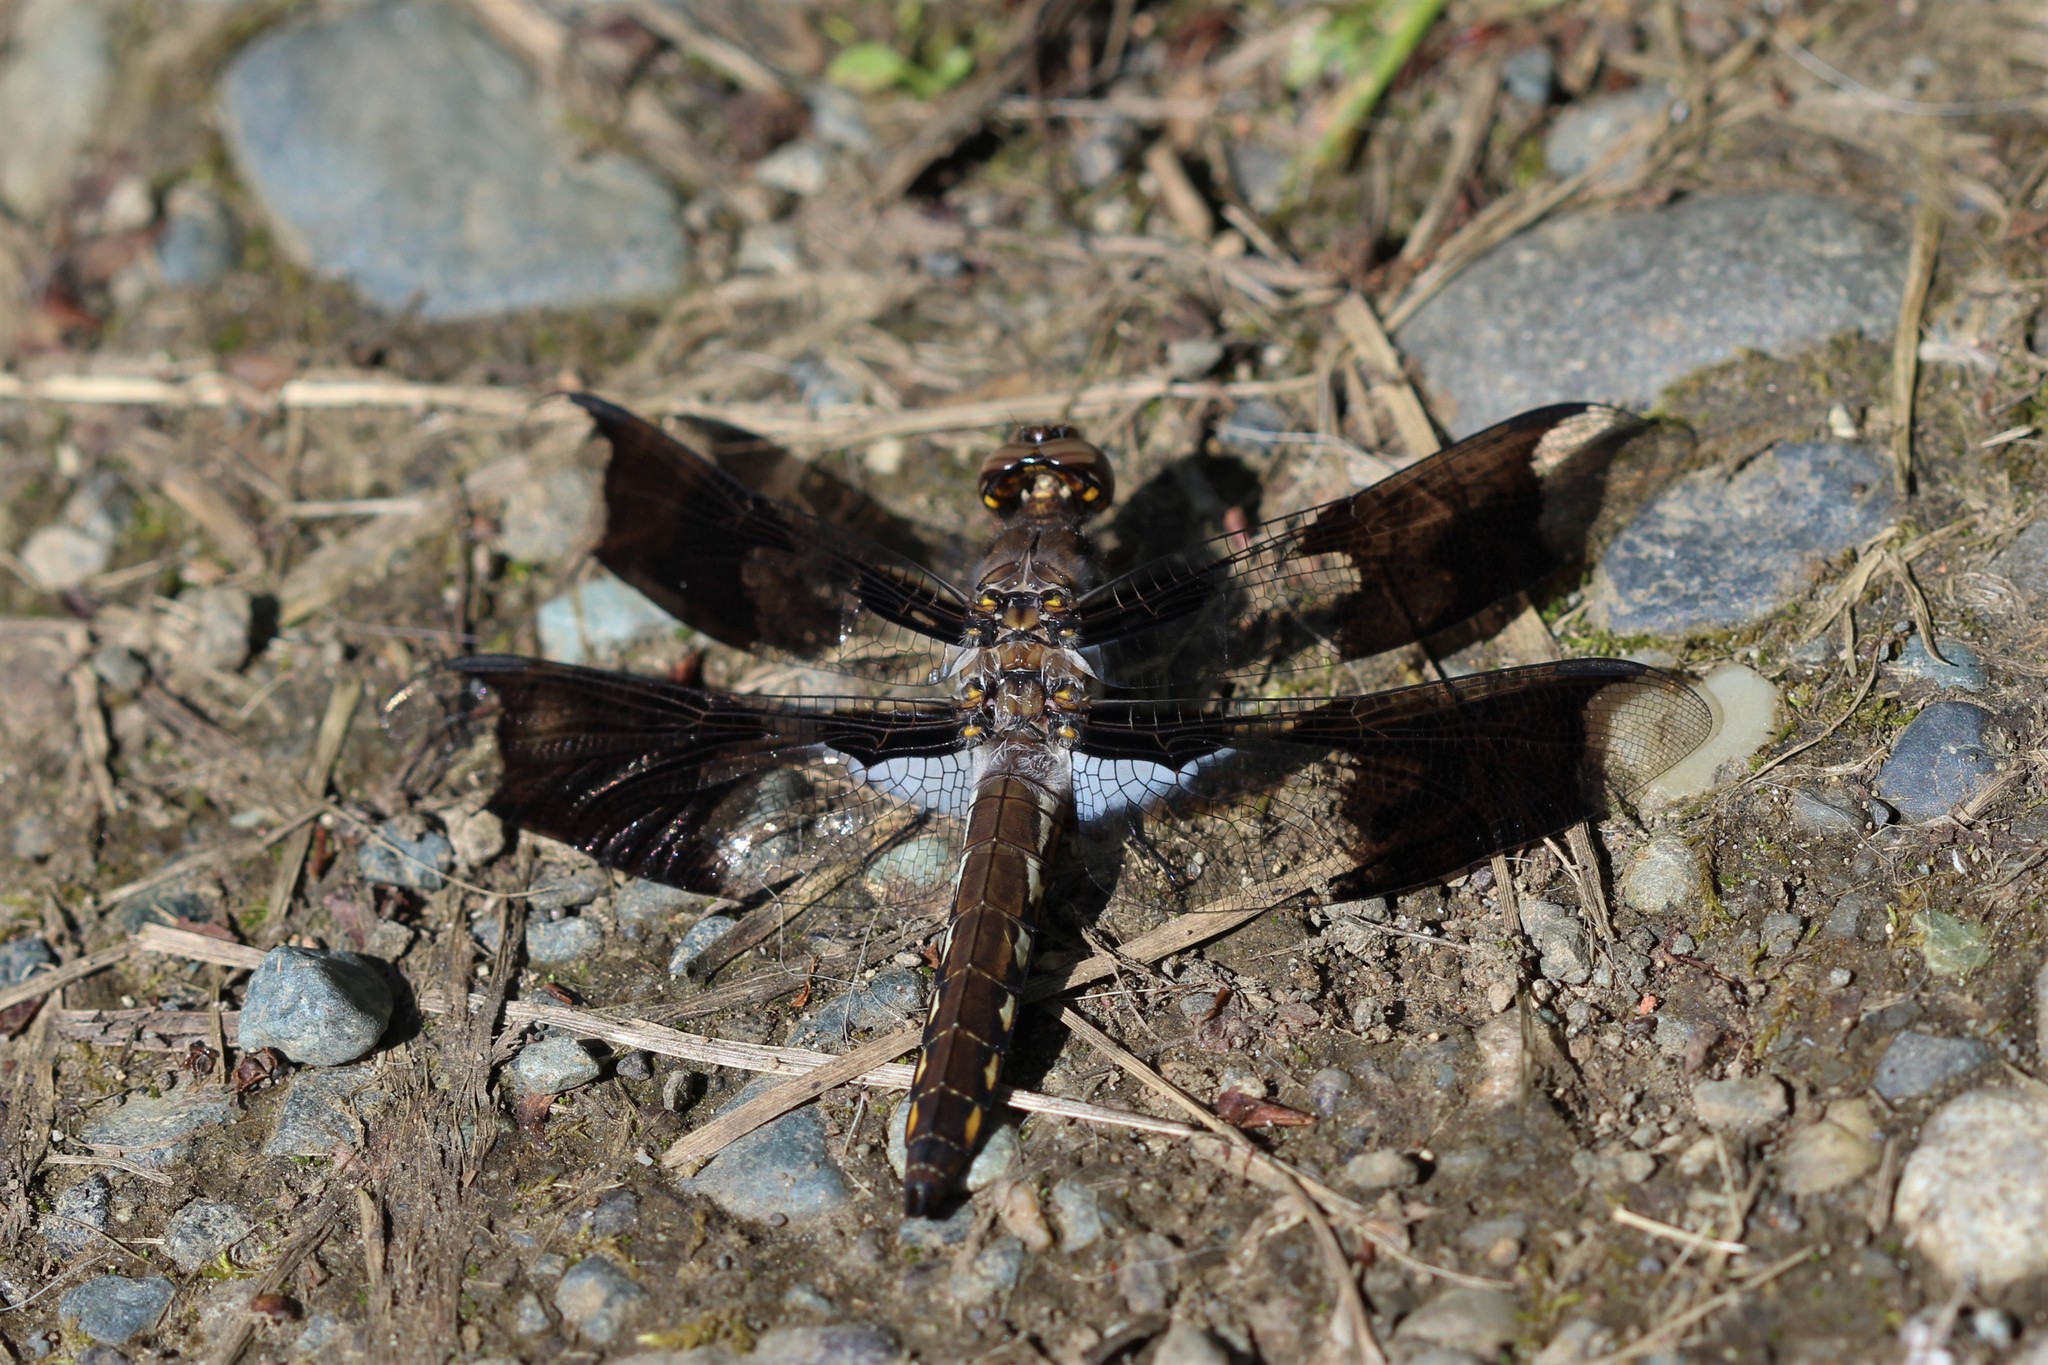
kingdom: Animalia
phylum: Arthropoda
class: Insecta
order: Odonata
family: Libellulidae
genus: Plathemis
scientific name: Plathemis lydia
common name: Common whitetail
